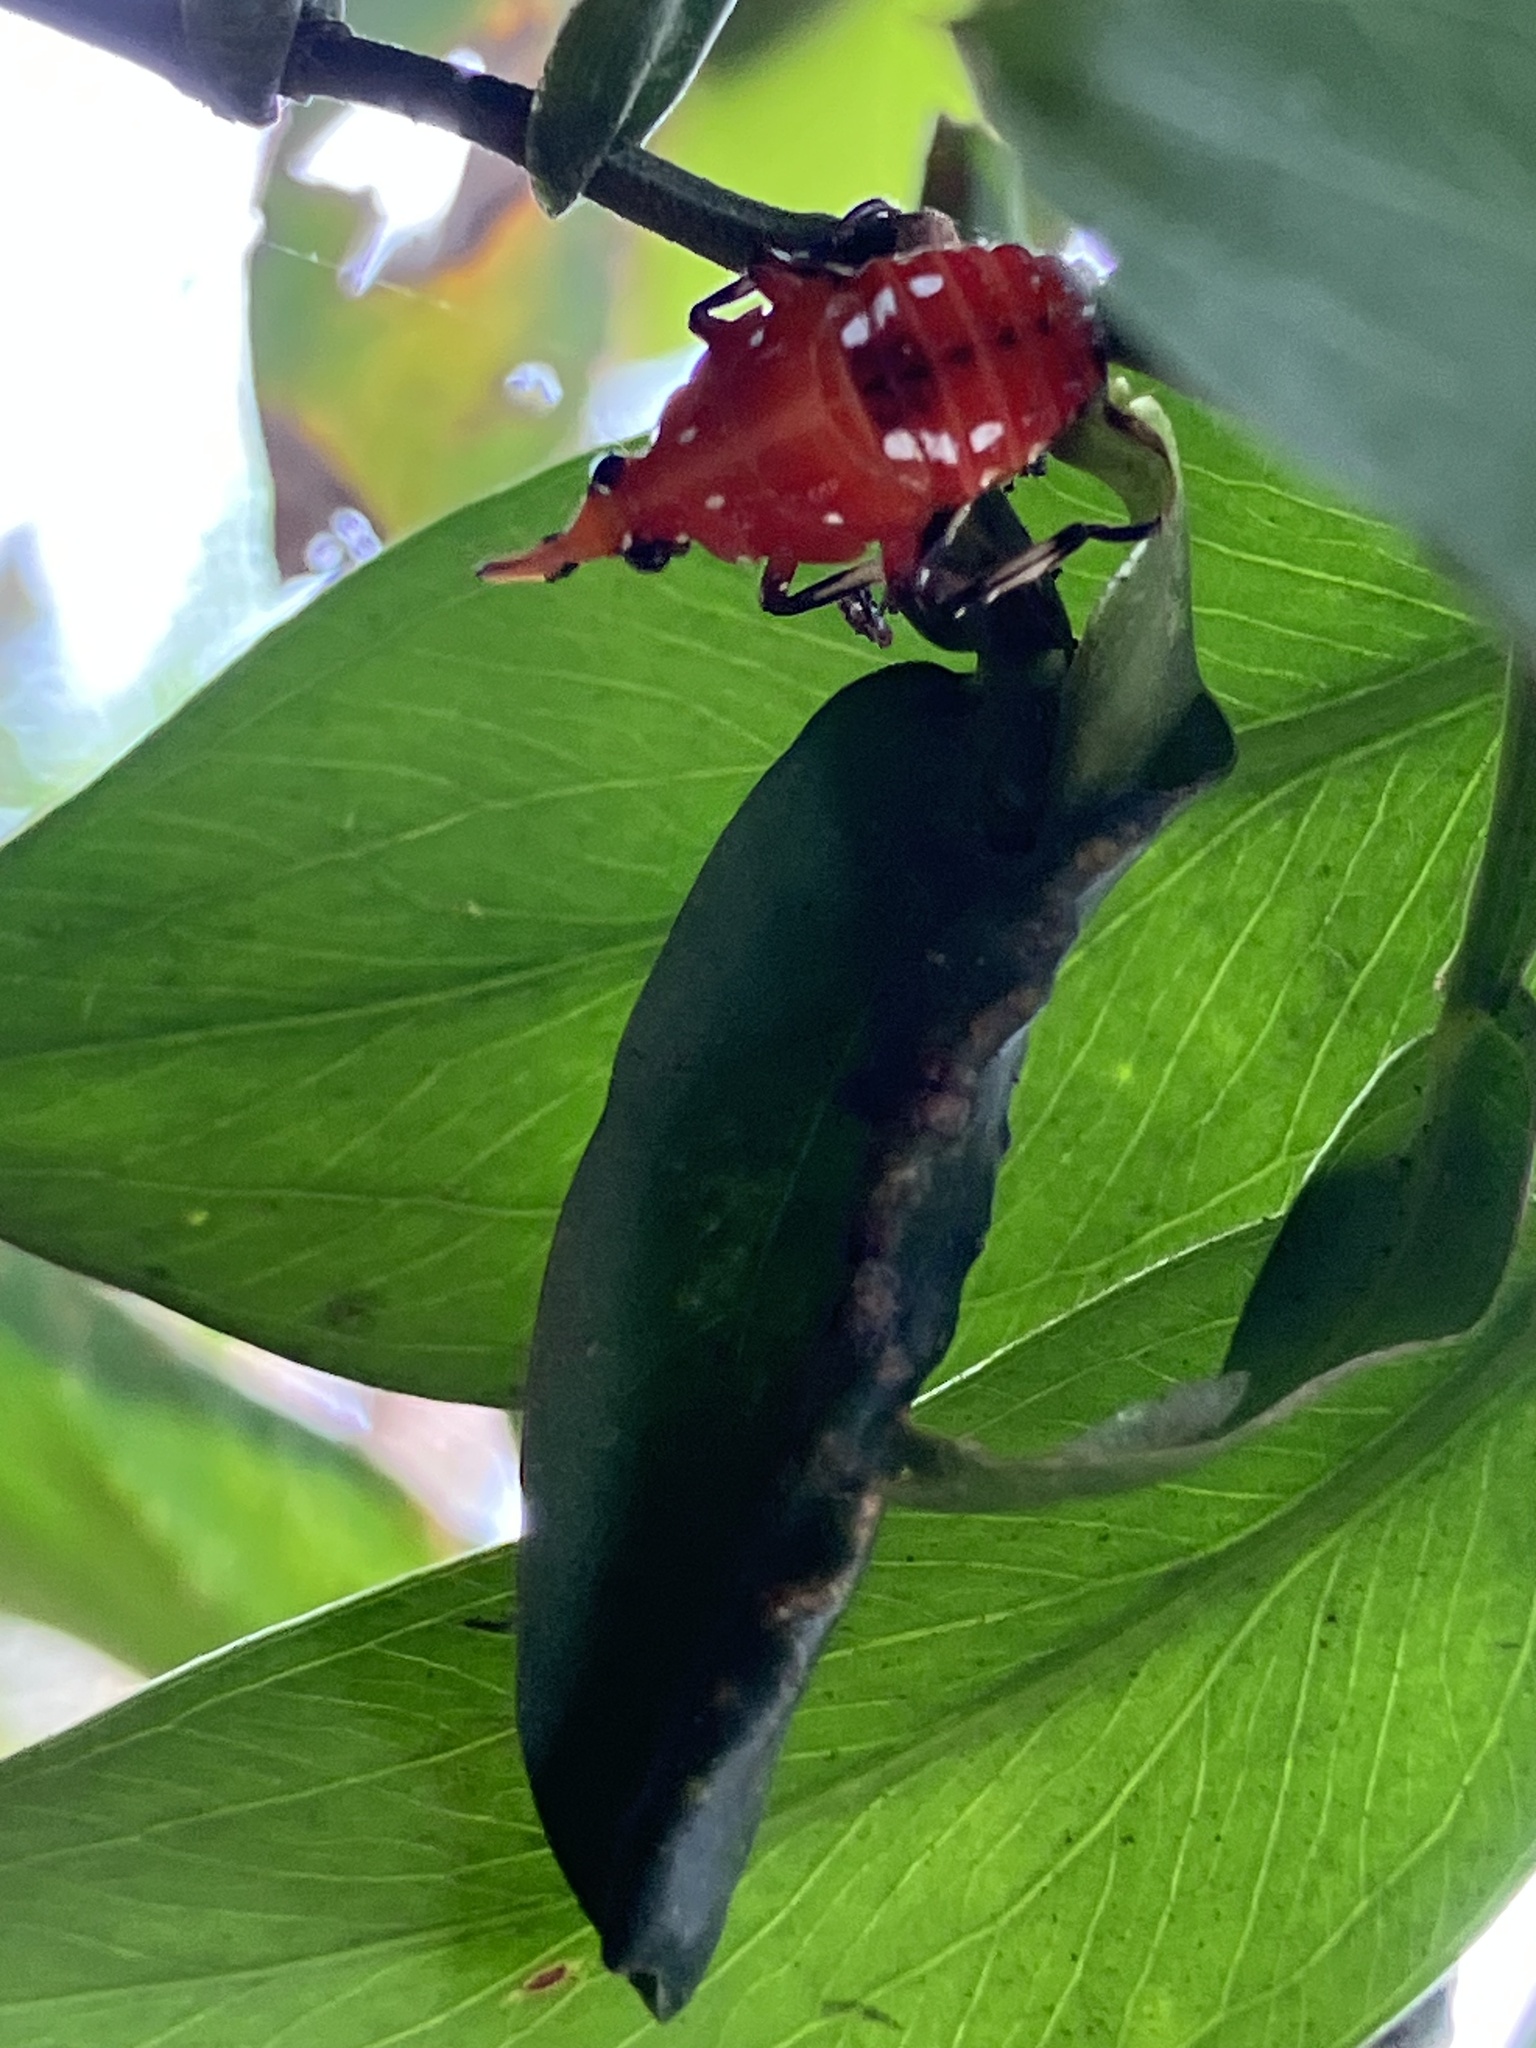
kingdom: Animalia
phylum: Arthropoda
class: Insecta
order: Hemiptera
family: Fulgoridae
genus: Kalidasa
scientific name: Kalidasa lanata
